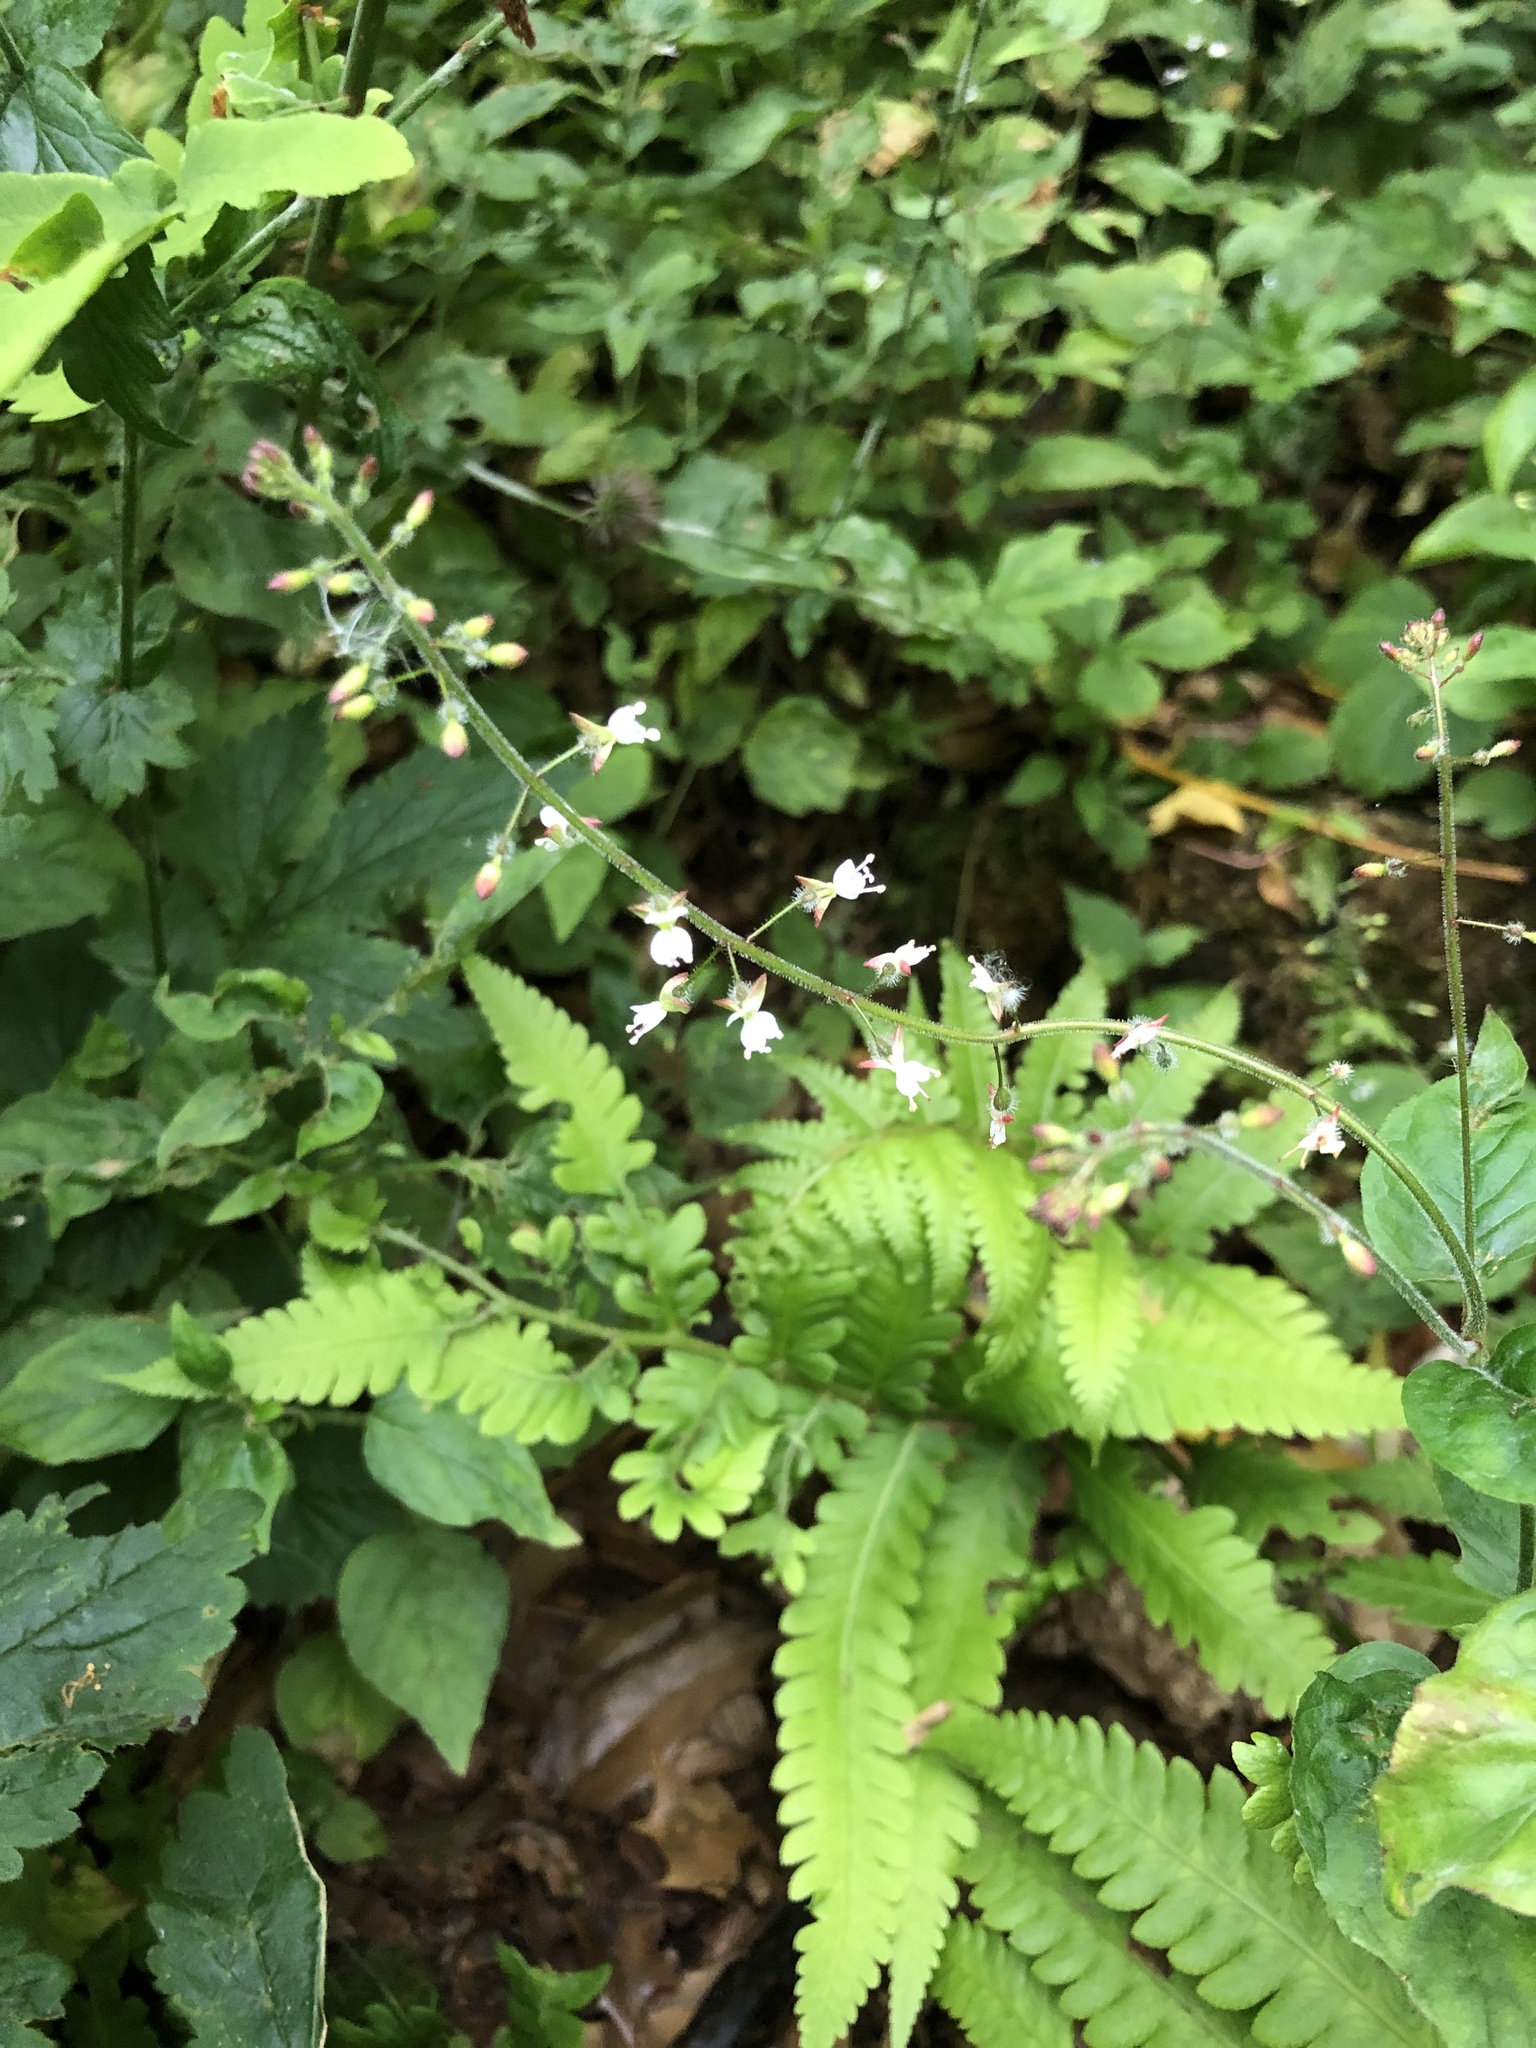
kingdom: Plantae
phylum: Tracheophyta
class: Magnoliopsida
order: Myrtales
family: Onagraceae
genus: Circaea
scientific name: Circaea lutetiana
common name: Enchanter's-nightshade
